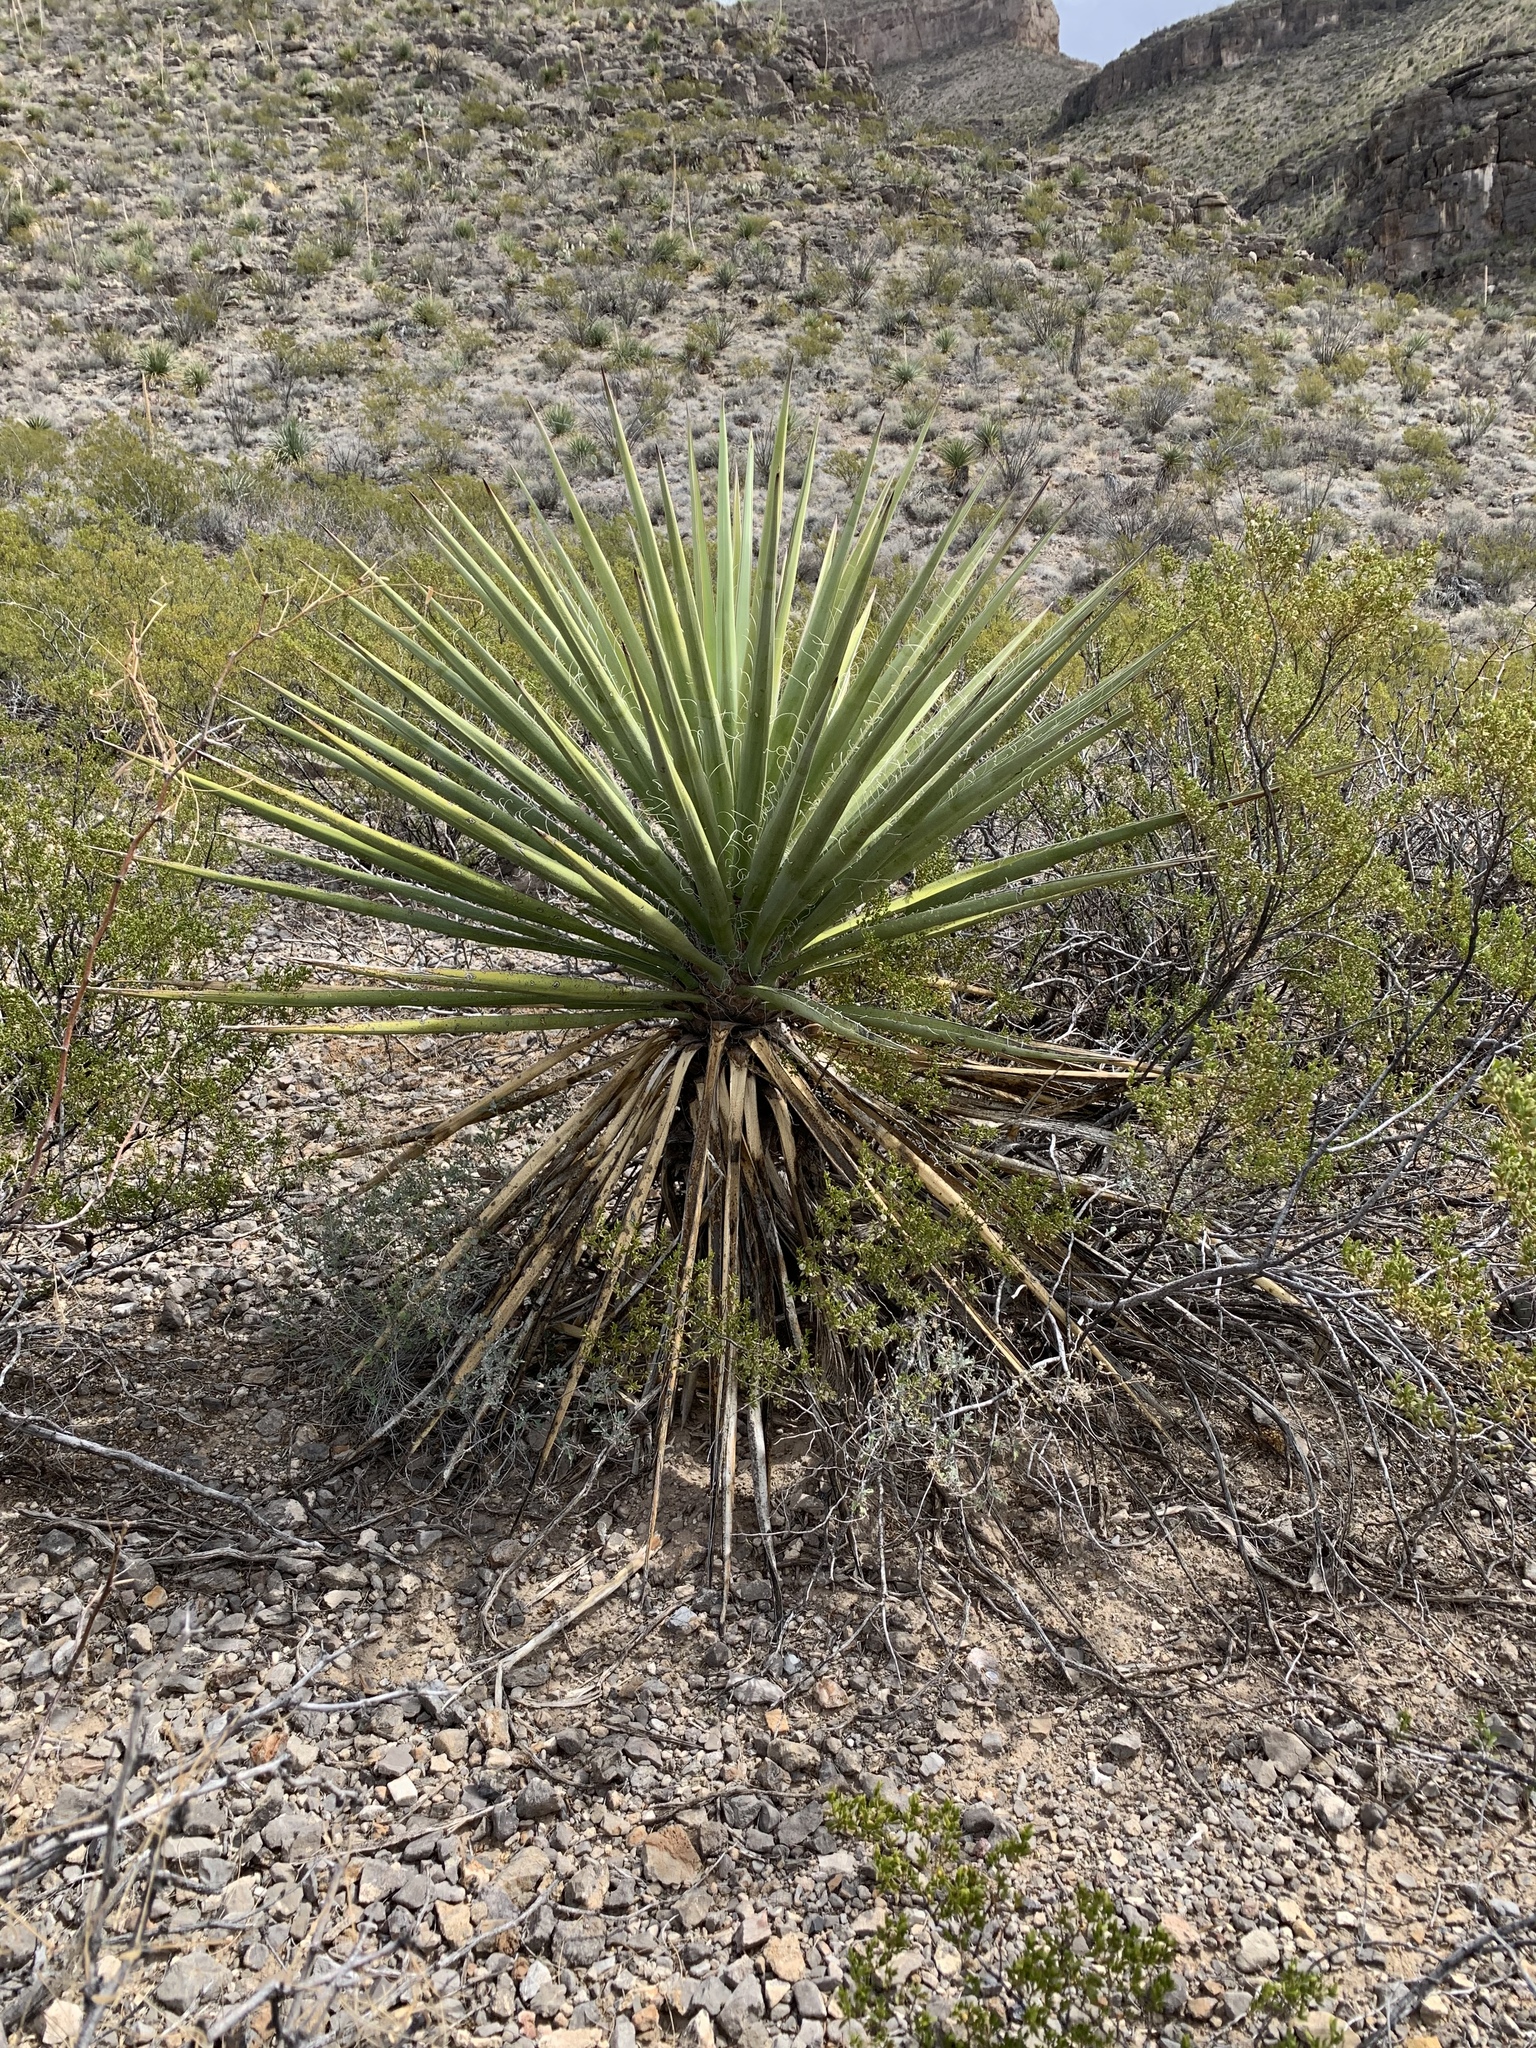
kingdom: Plantae
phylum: Tracheophyta
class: Liliopsida
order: Asparagales
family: Asparagaceae
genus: Yucca
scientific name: Yucca treculiana
